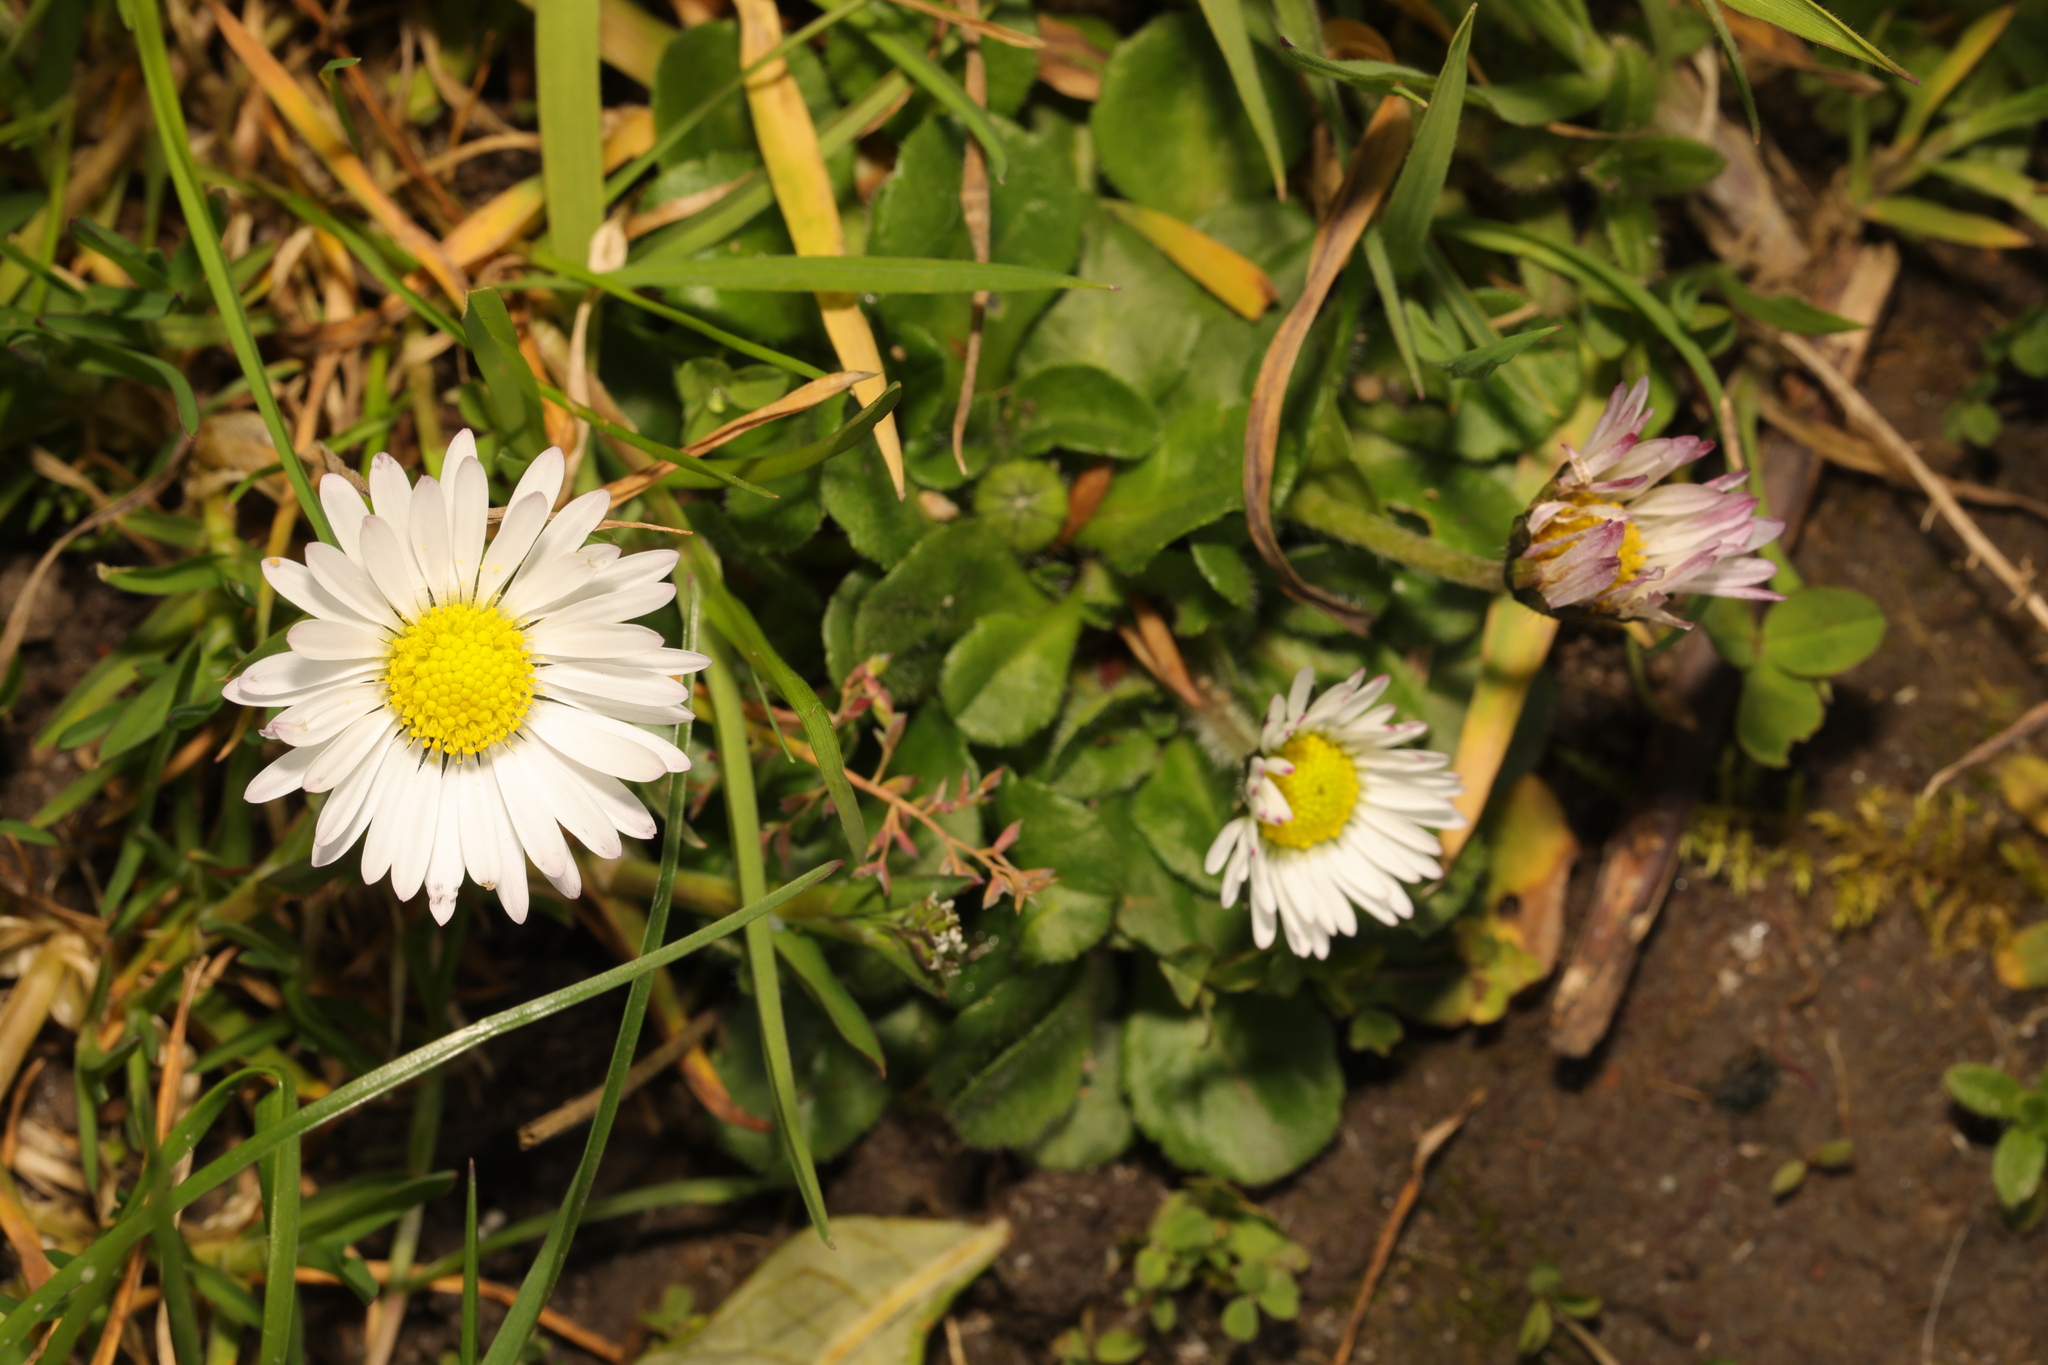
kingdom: Plantae
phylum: Tracheophyta
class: Magnoliopsida
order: Asterales
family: Asteraceae
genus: Bellis
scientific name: Bellis perennis
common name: Lawndaisy
